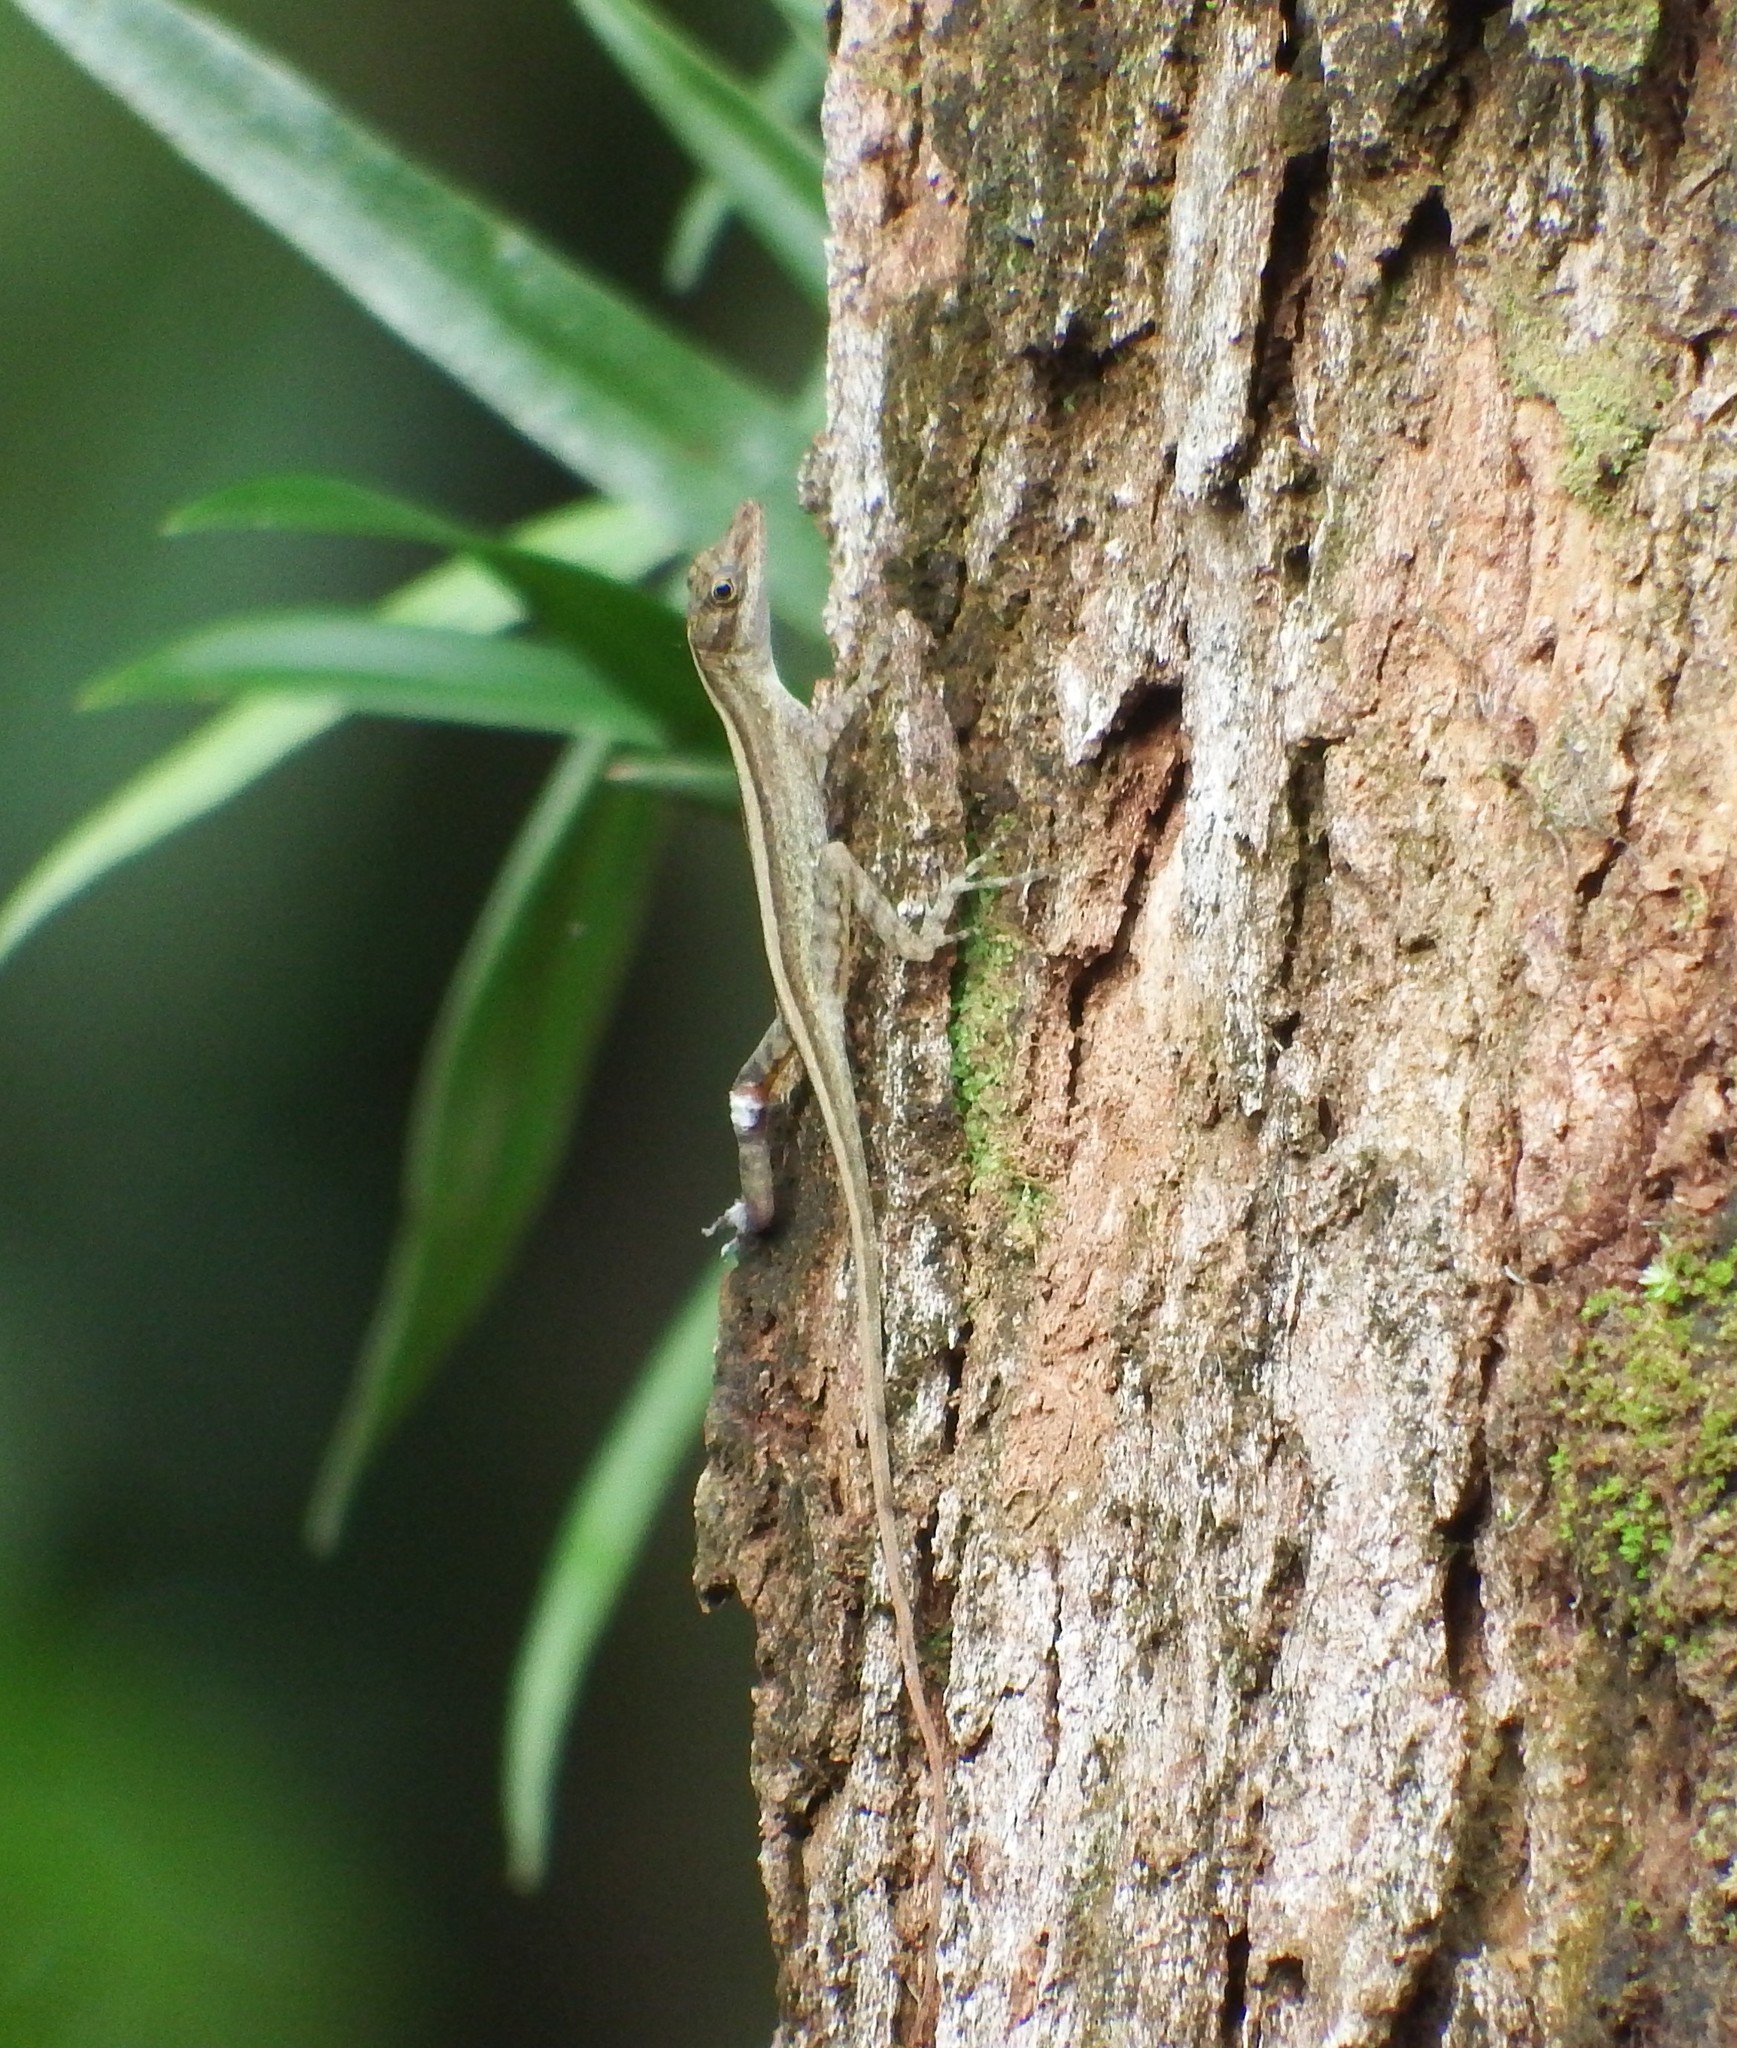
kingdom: Animalia
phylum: Chordata
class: Squamata
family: Dactyloidae
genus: Anolis
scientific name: Anolis limifrons
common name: Border anole
